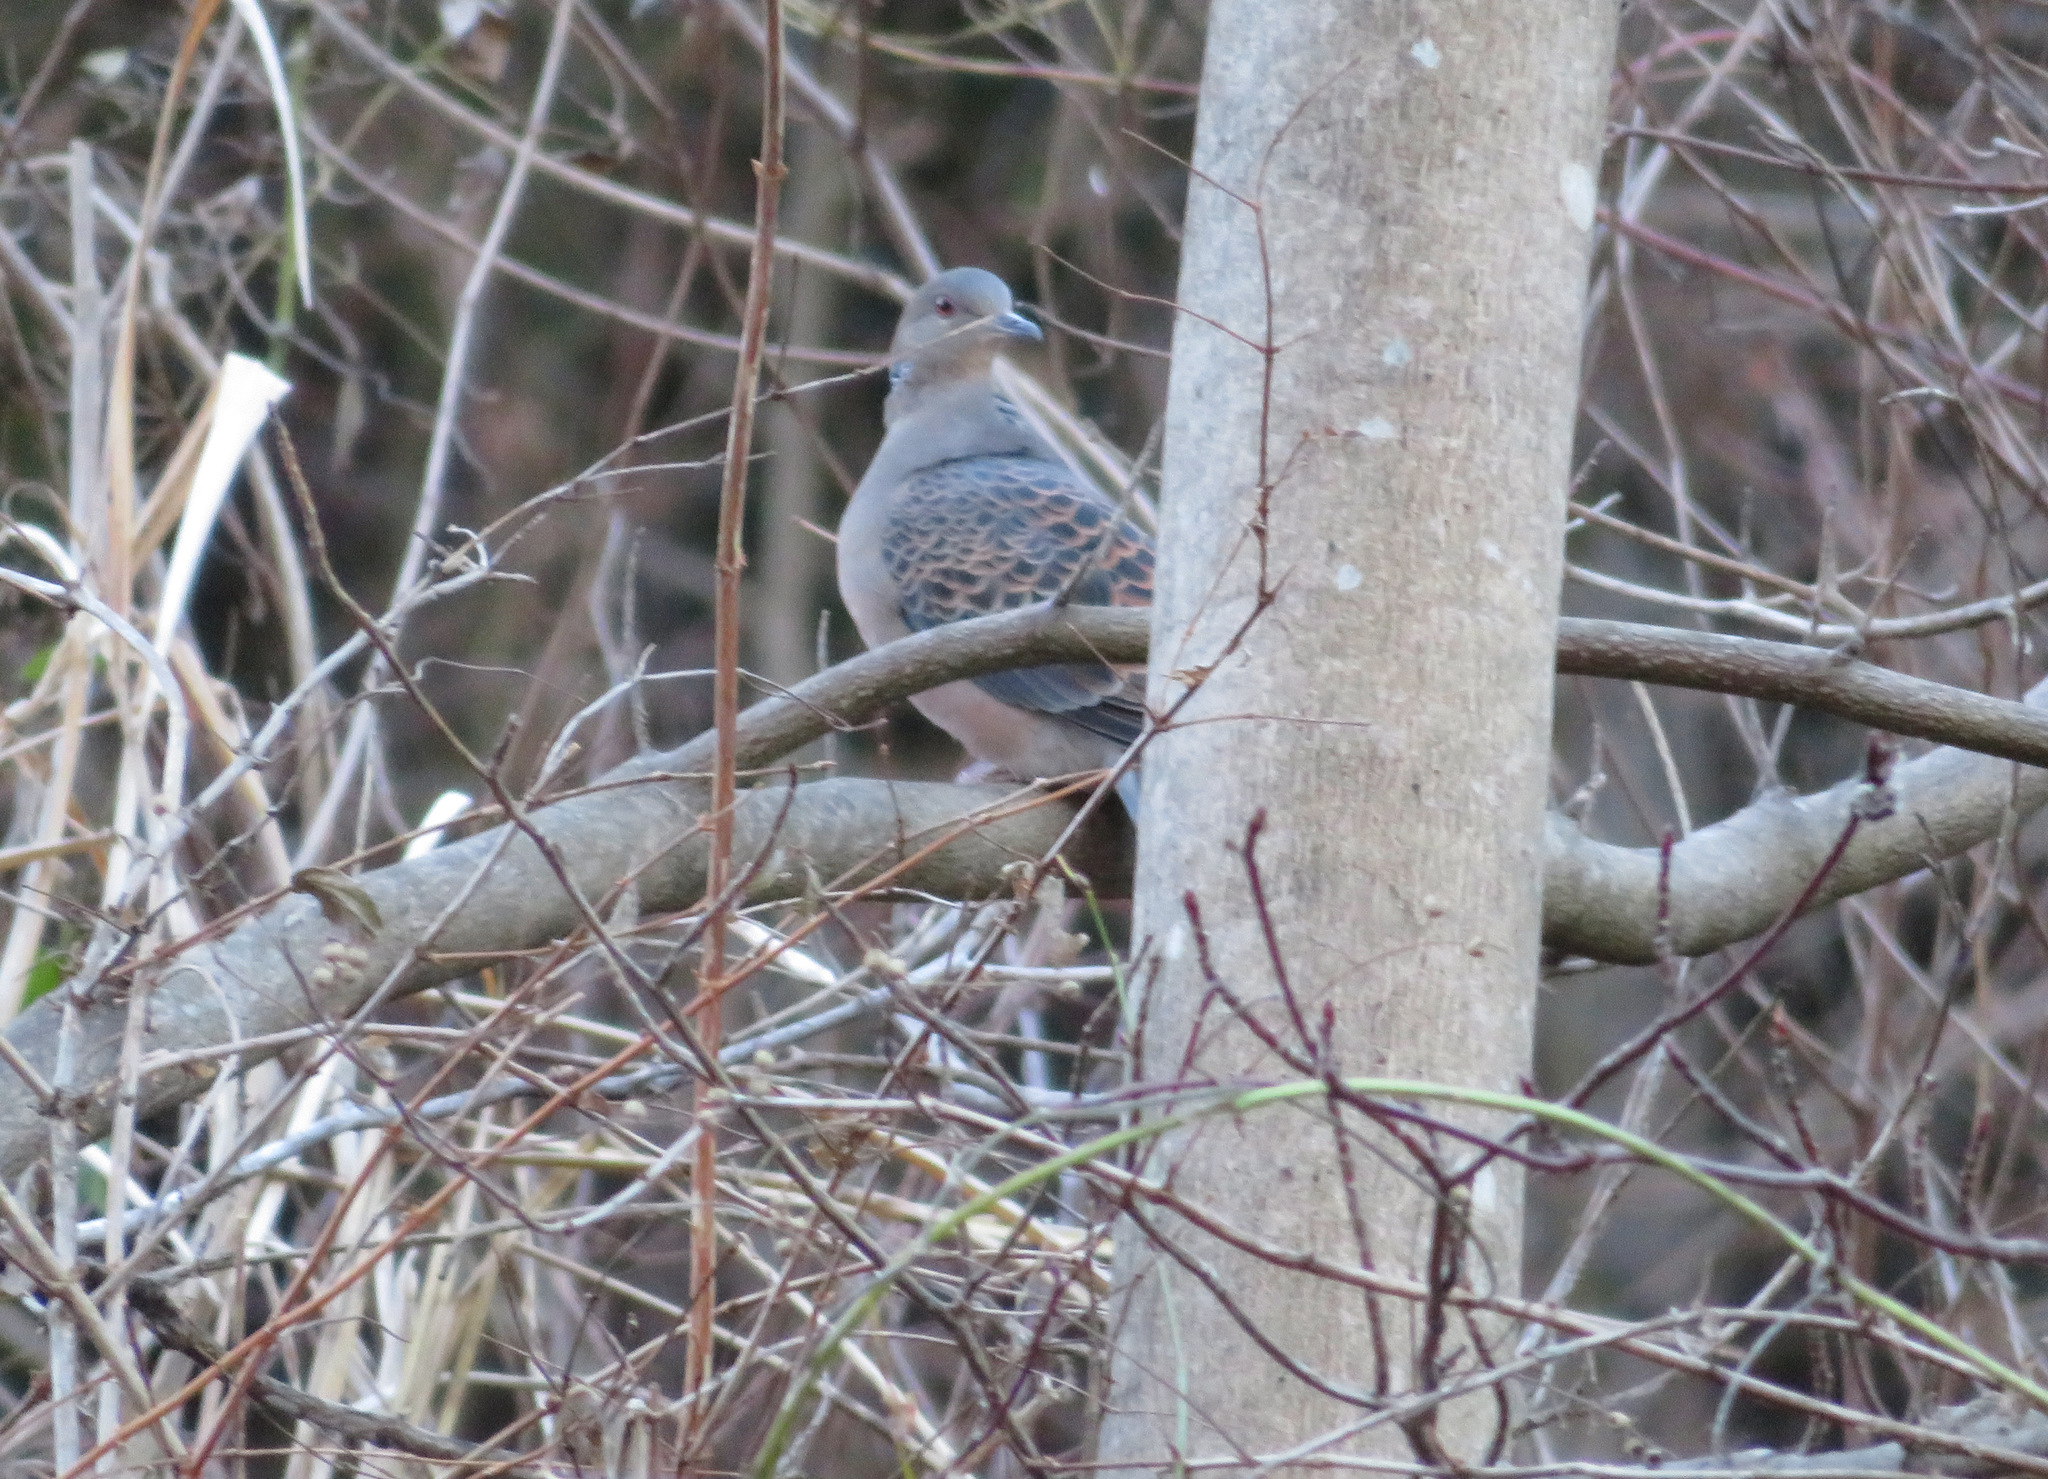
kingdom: Animalia
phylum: Chordata
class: Aves
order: Columbiformes
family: Columbidae
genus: Streptopelia
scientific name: Streptopelia orientalis
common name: Oriental turtle dove
